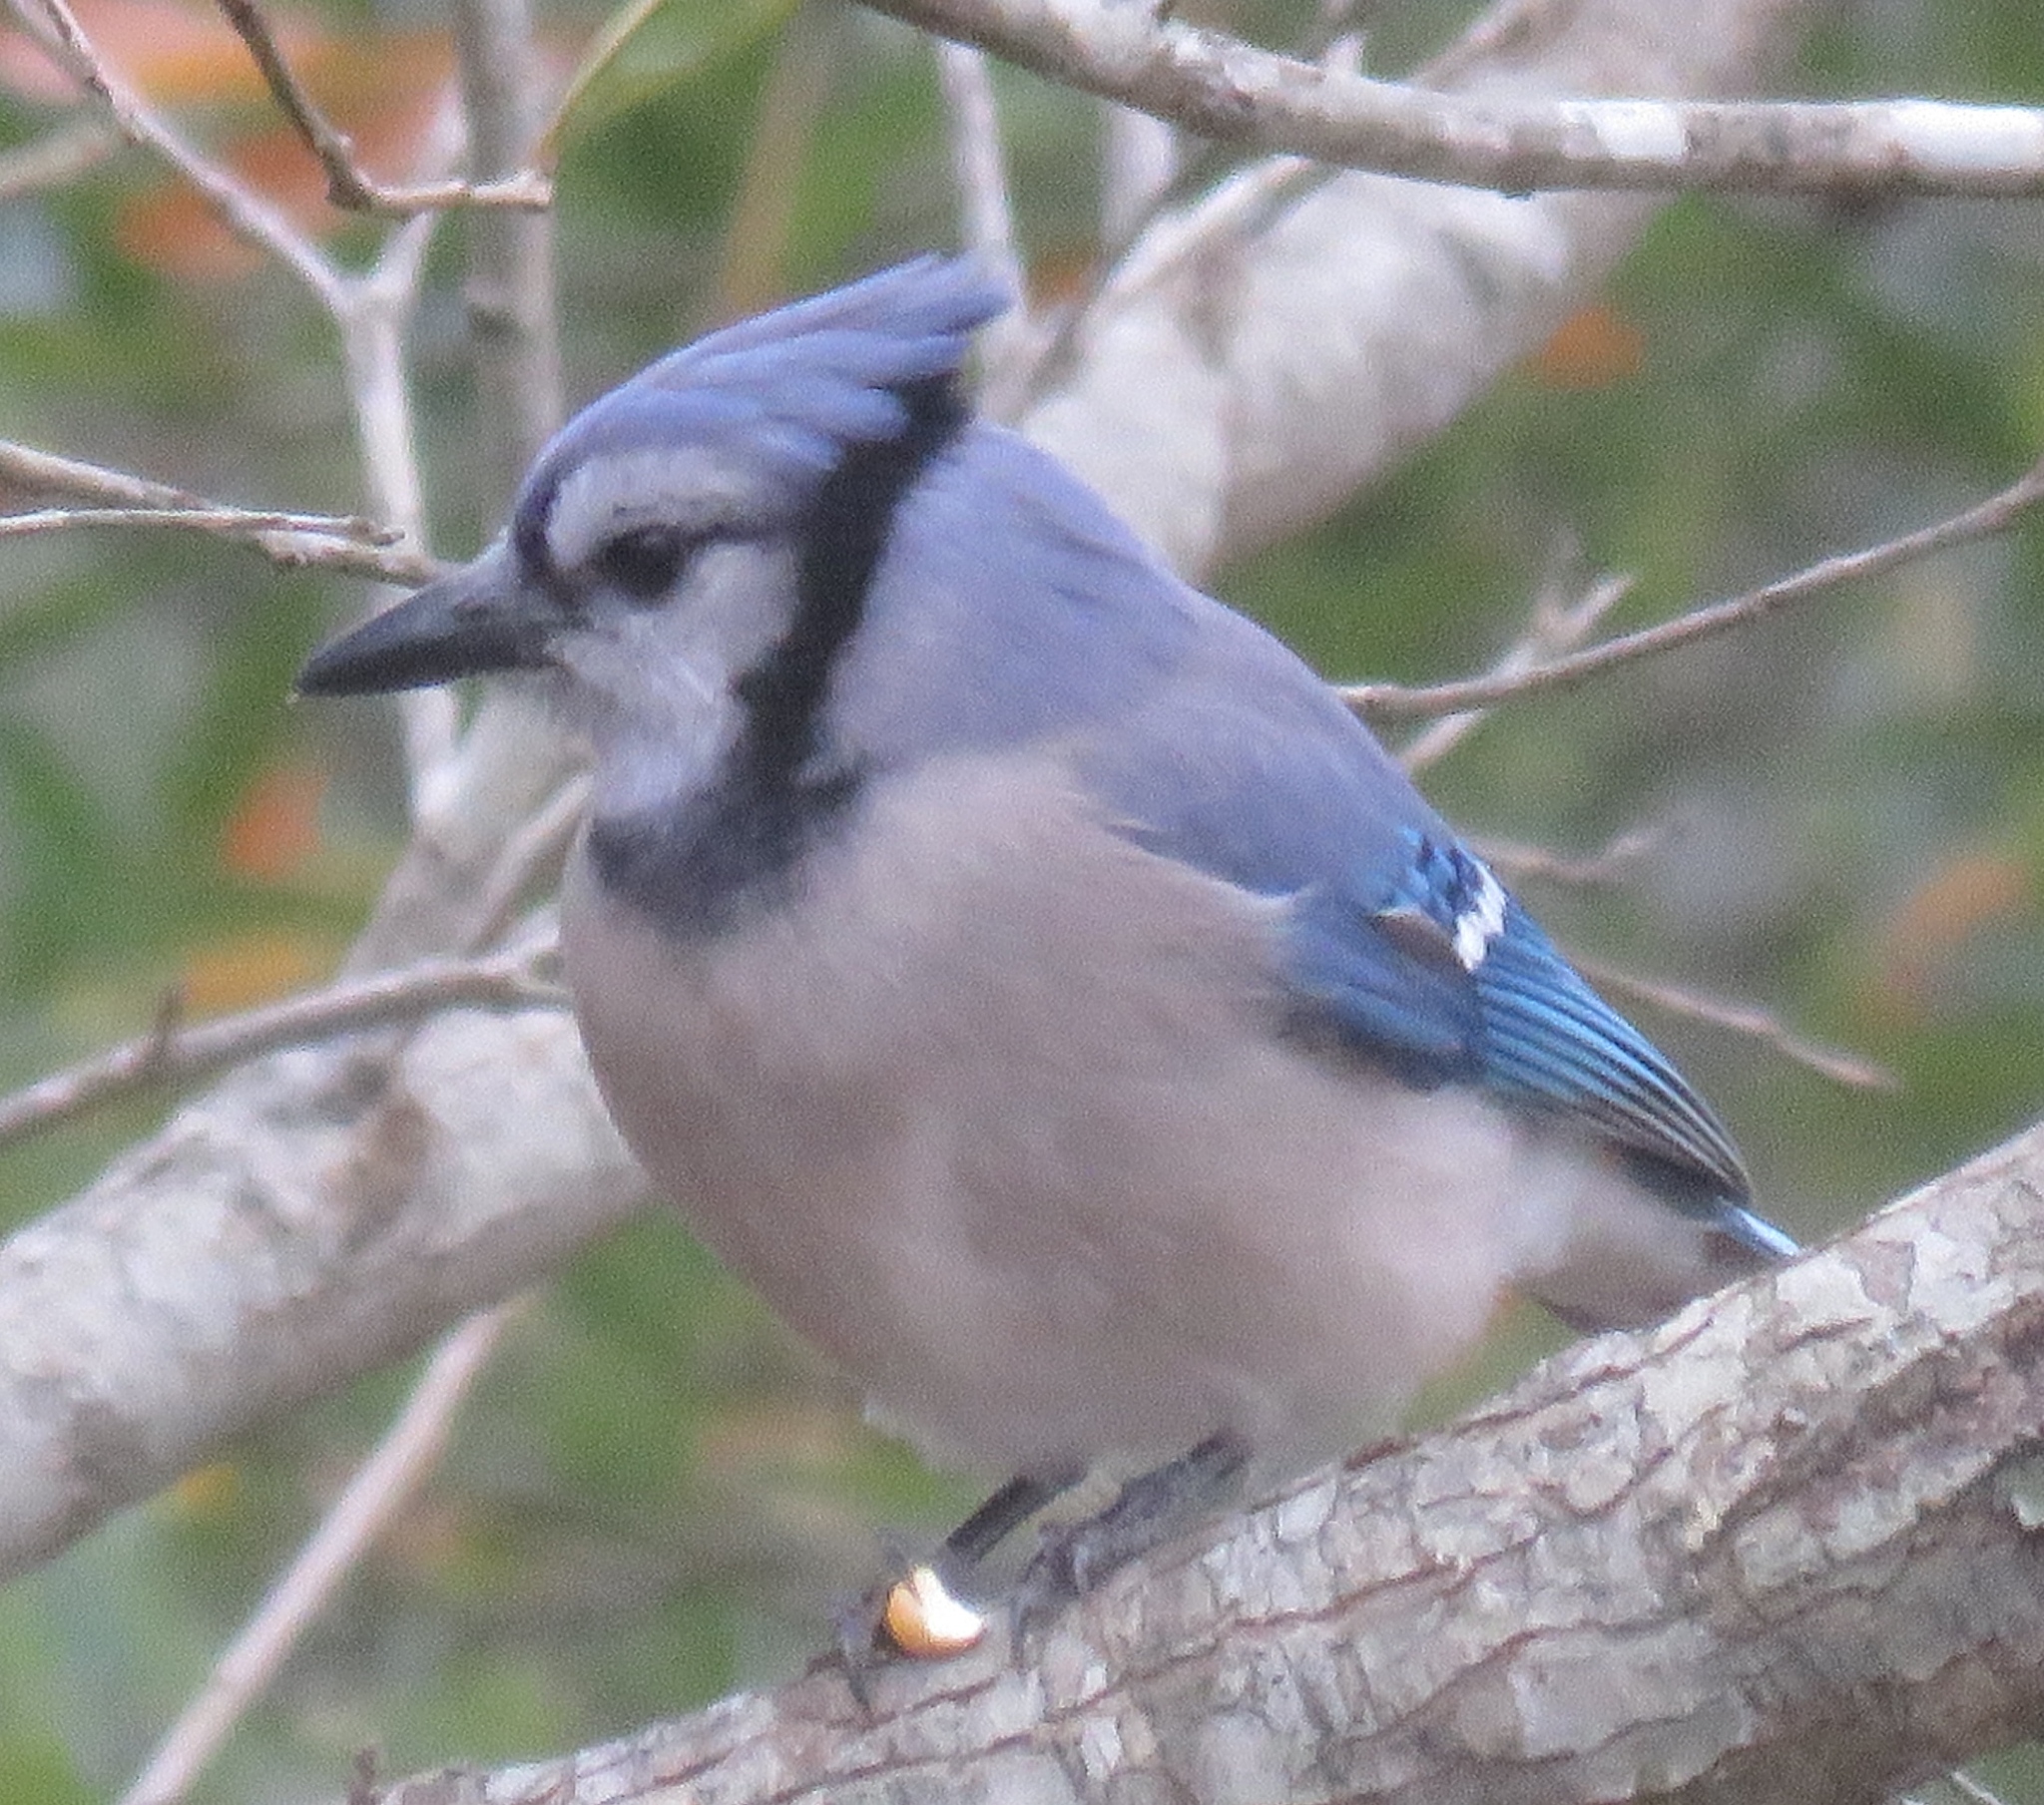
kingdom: Animalia
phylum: Chordata
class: Aves
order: Passeriformes
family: Corvidae
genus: Cyanocitta
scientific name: Cyanocitta cristata
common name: Blue jay
